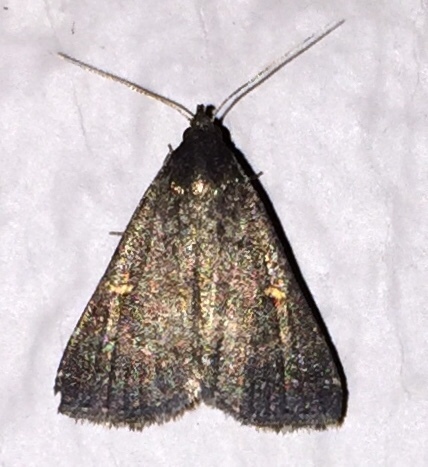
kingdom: Animalia
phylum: Arthropoda
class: Insecta
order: Lepidoptera
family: Erebidae
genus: Tetanolita
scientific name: Tetanolita mynesalis
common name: Smoky tetanolita moth
